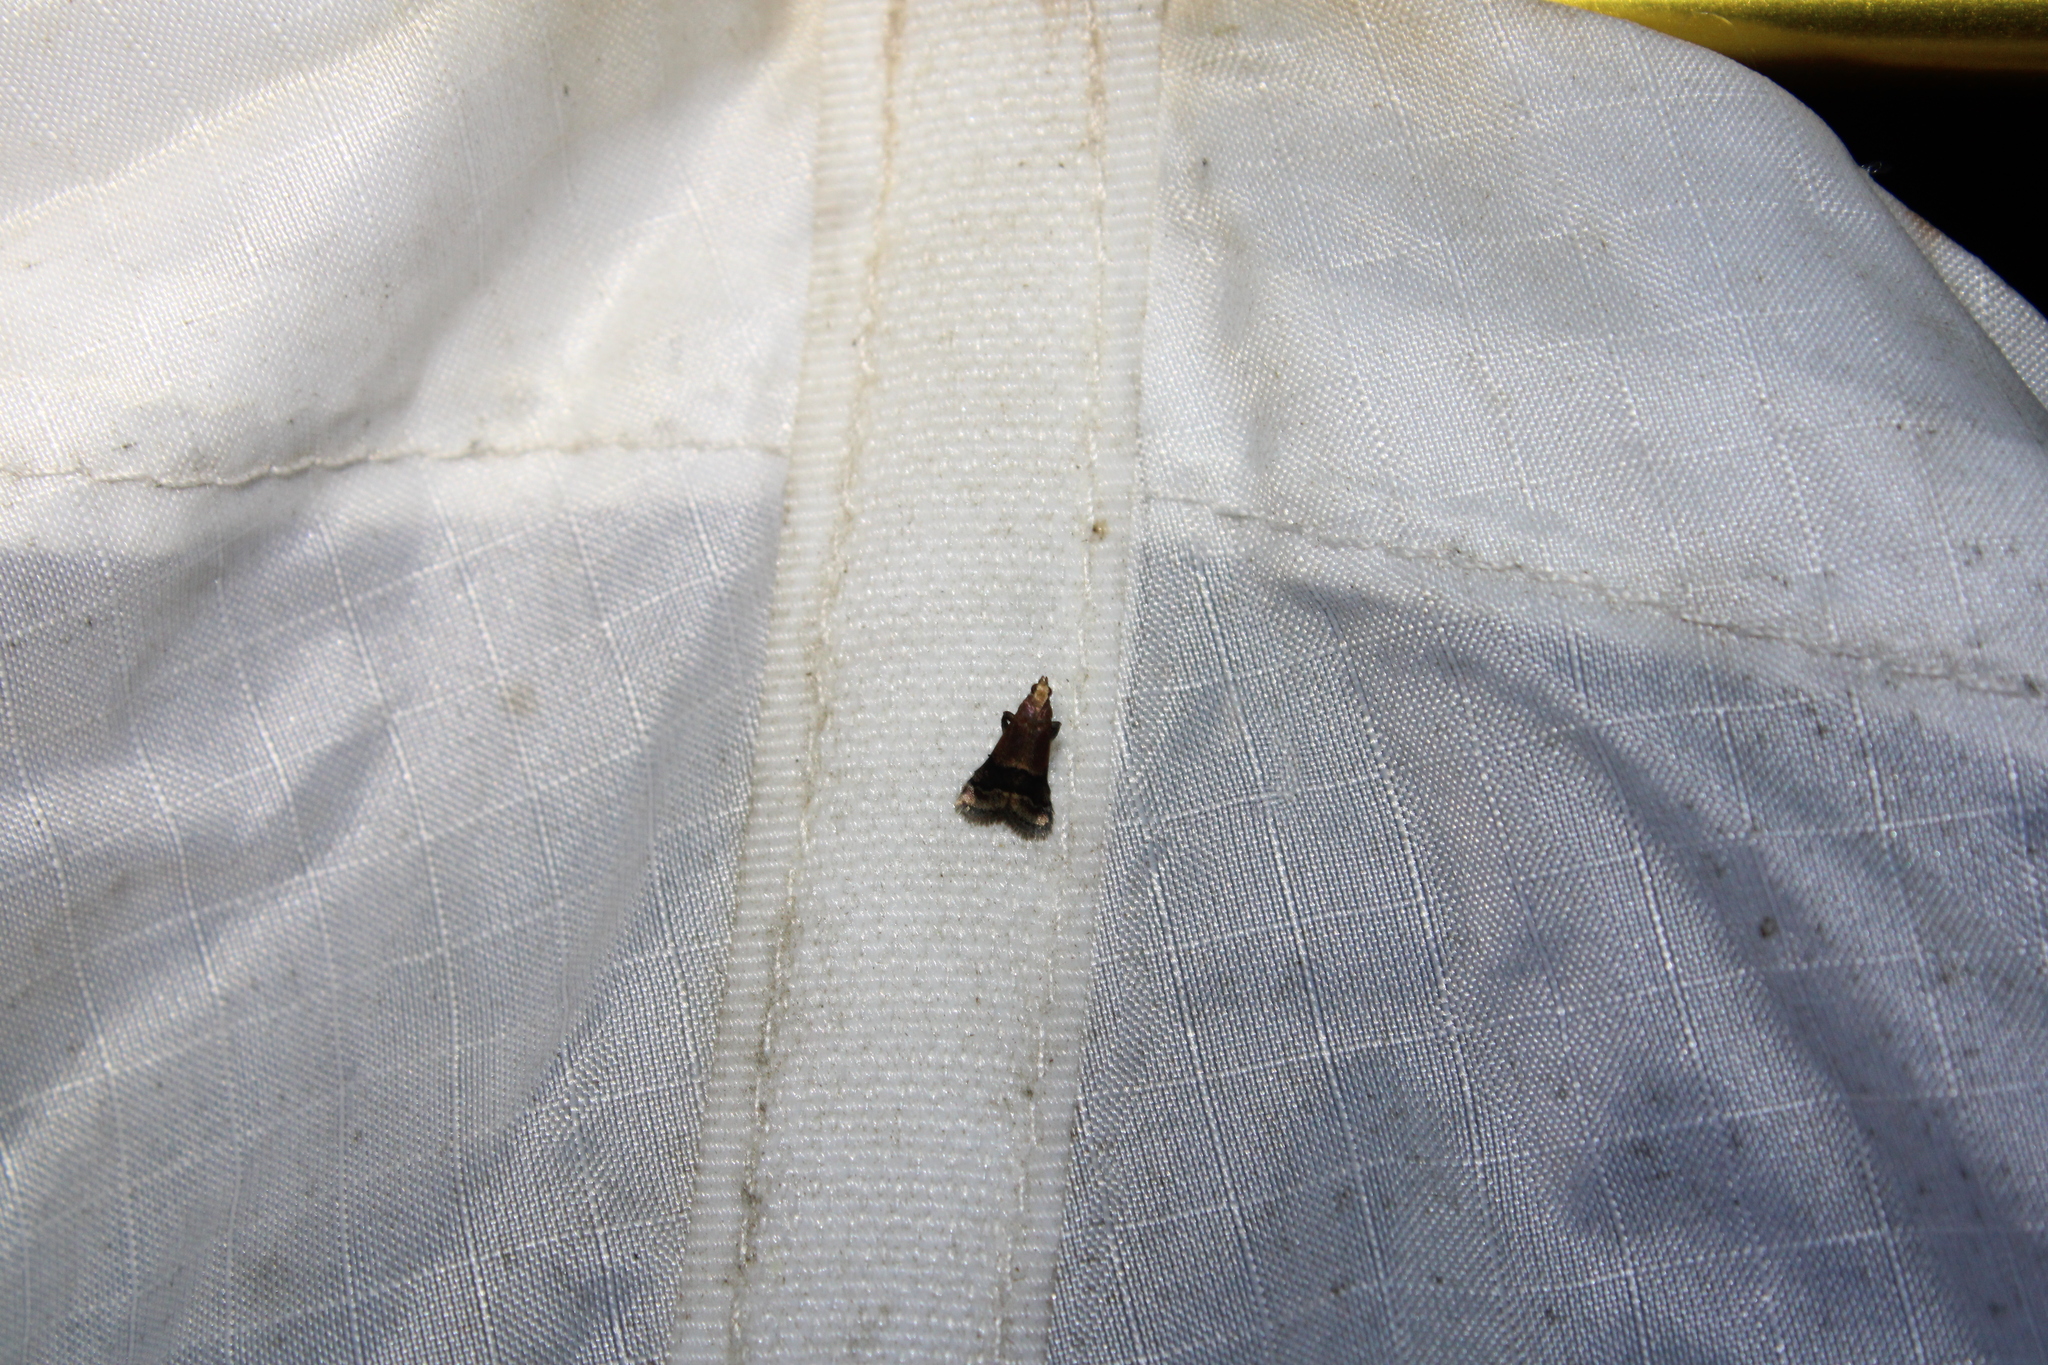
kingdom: Animalia
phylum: Arthropoda
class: Insecta
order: Lepidoptera
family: Pyralidae
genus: Eulogia
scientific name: Eulogia ochrifrontella
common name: Broad-banded eulogia moth
